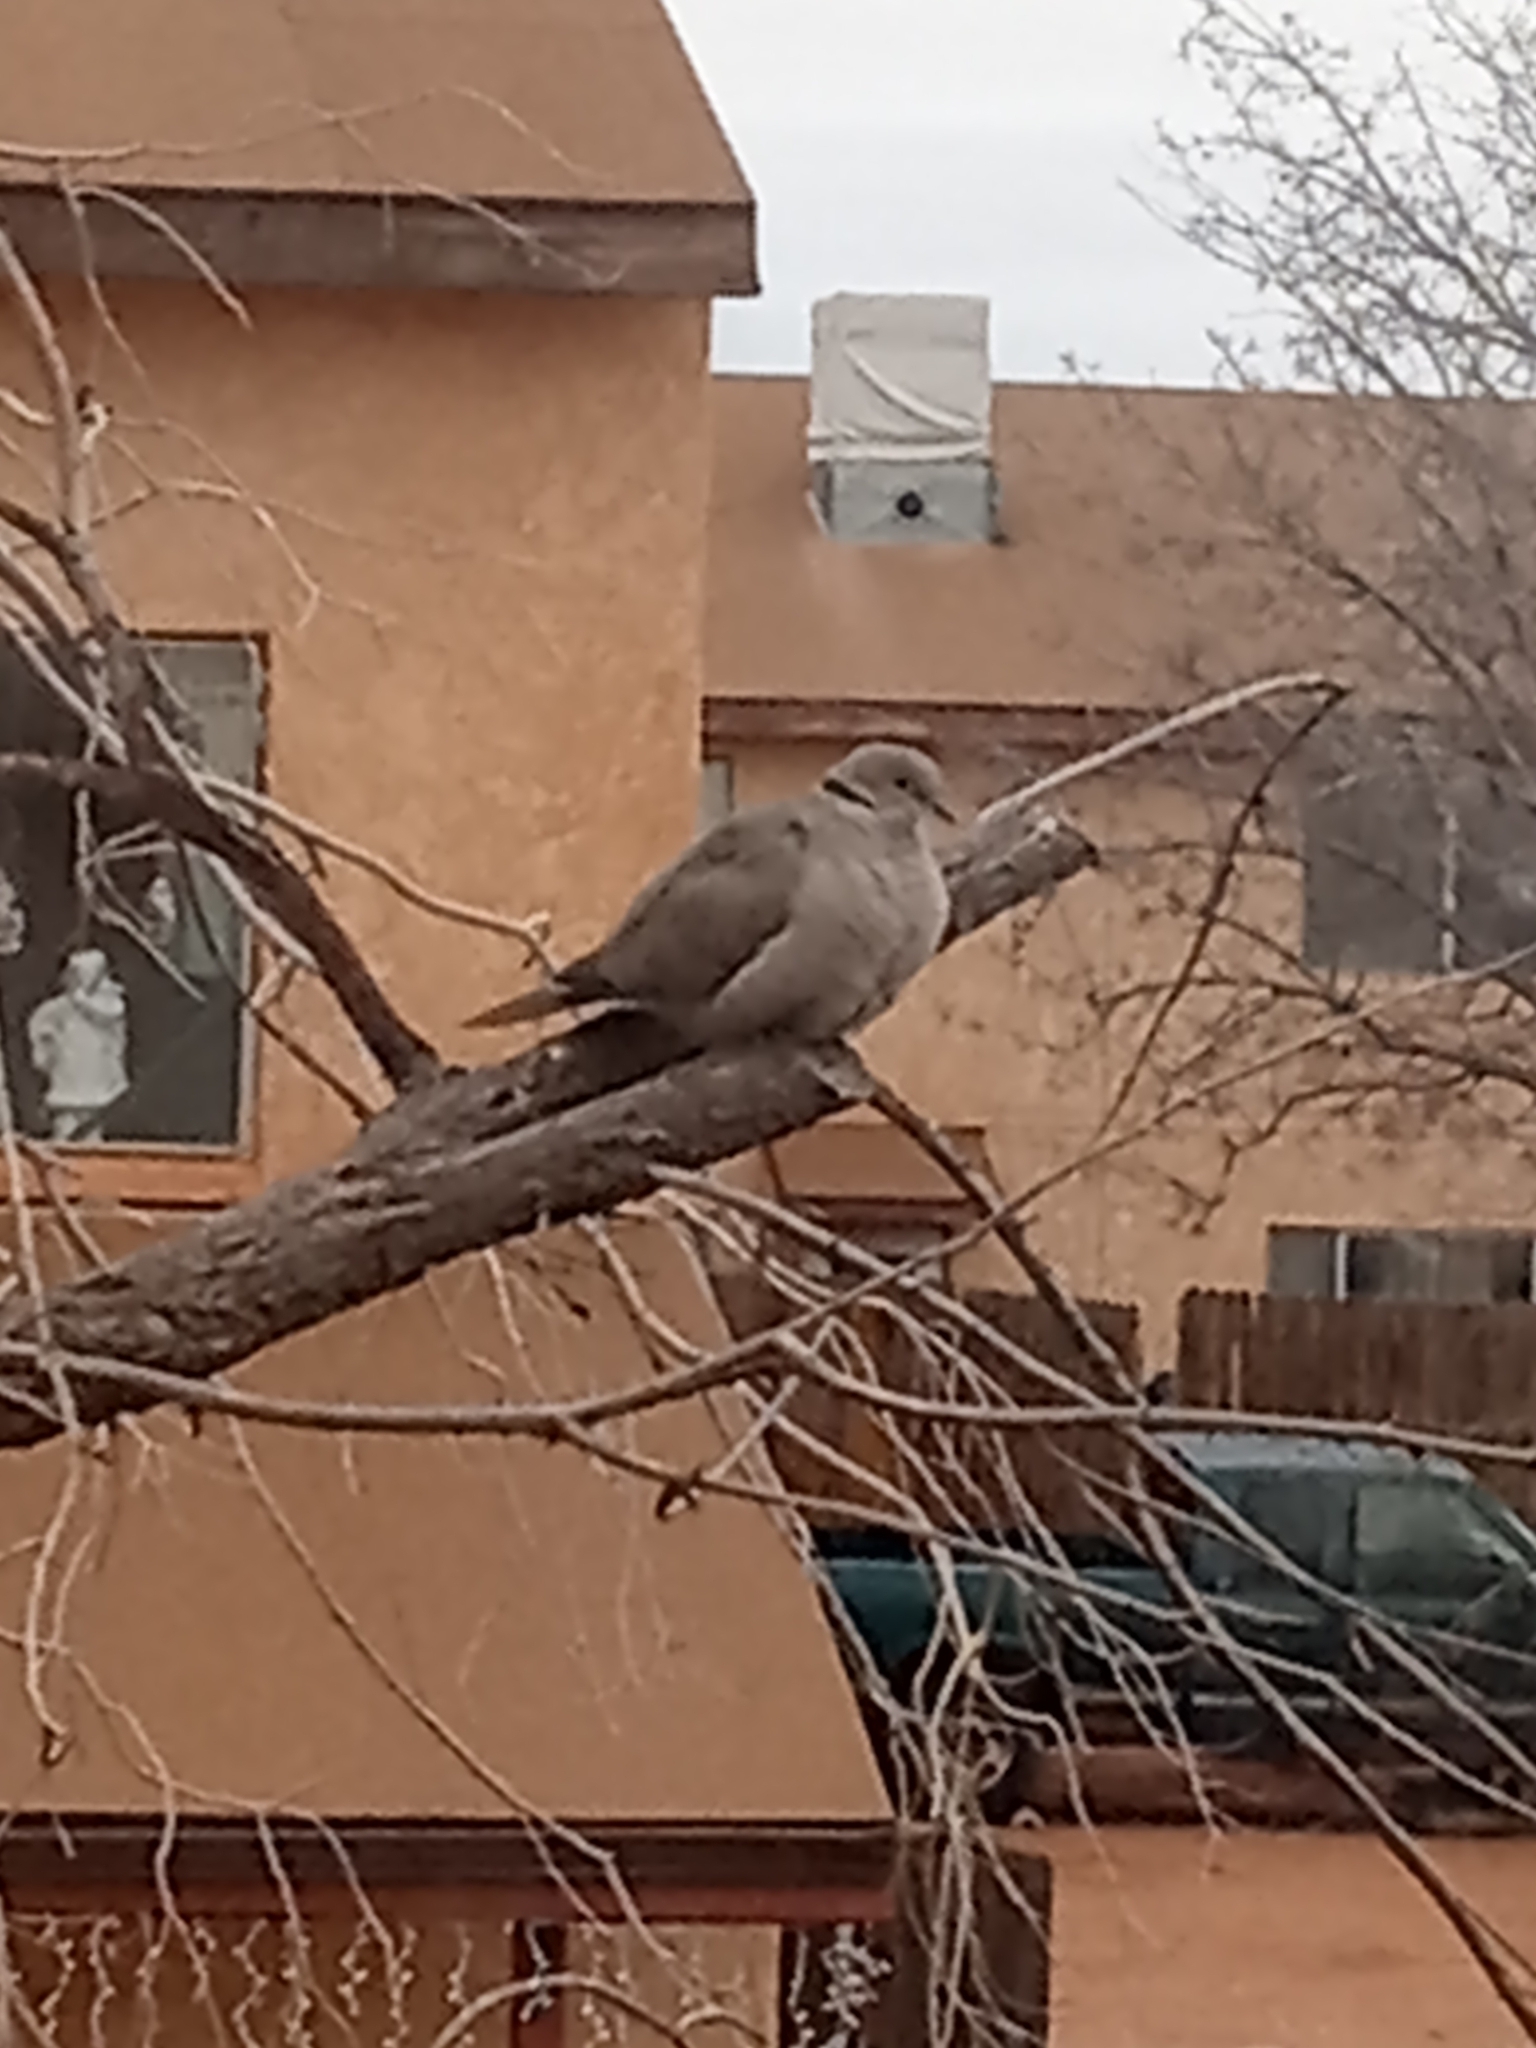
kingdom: Animalia
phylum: Chordata
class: Aves
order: Columbiformes
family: Columbidae
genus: Streptopelia
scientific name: Streptopelia decaocto
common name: Eurasian collared dove
